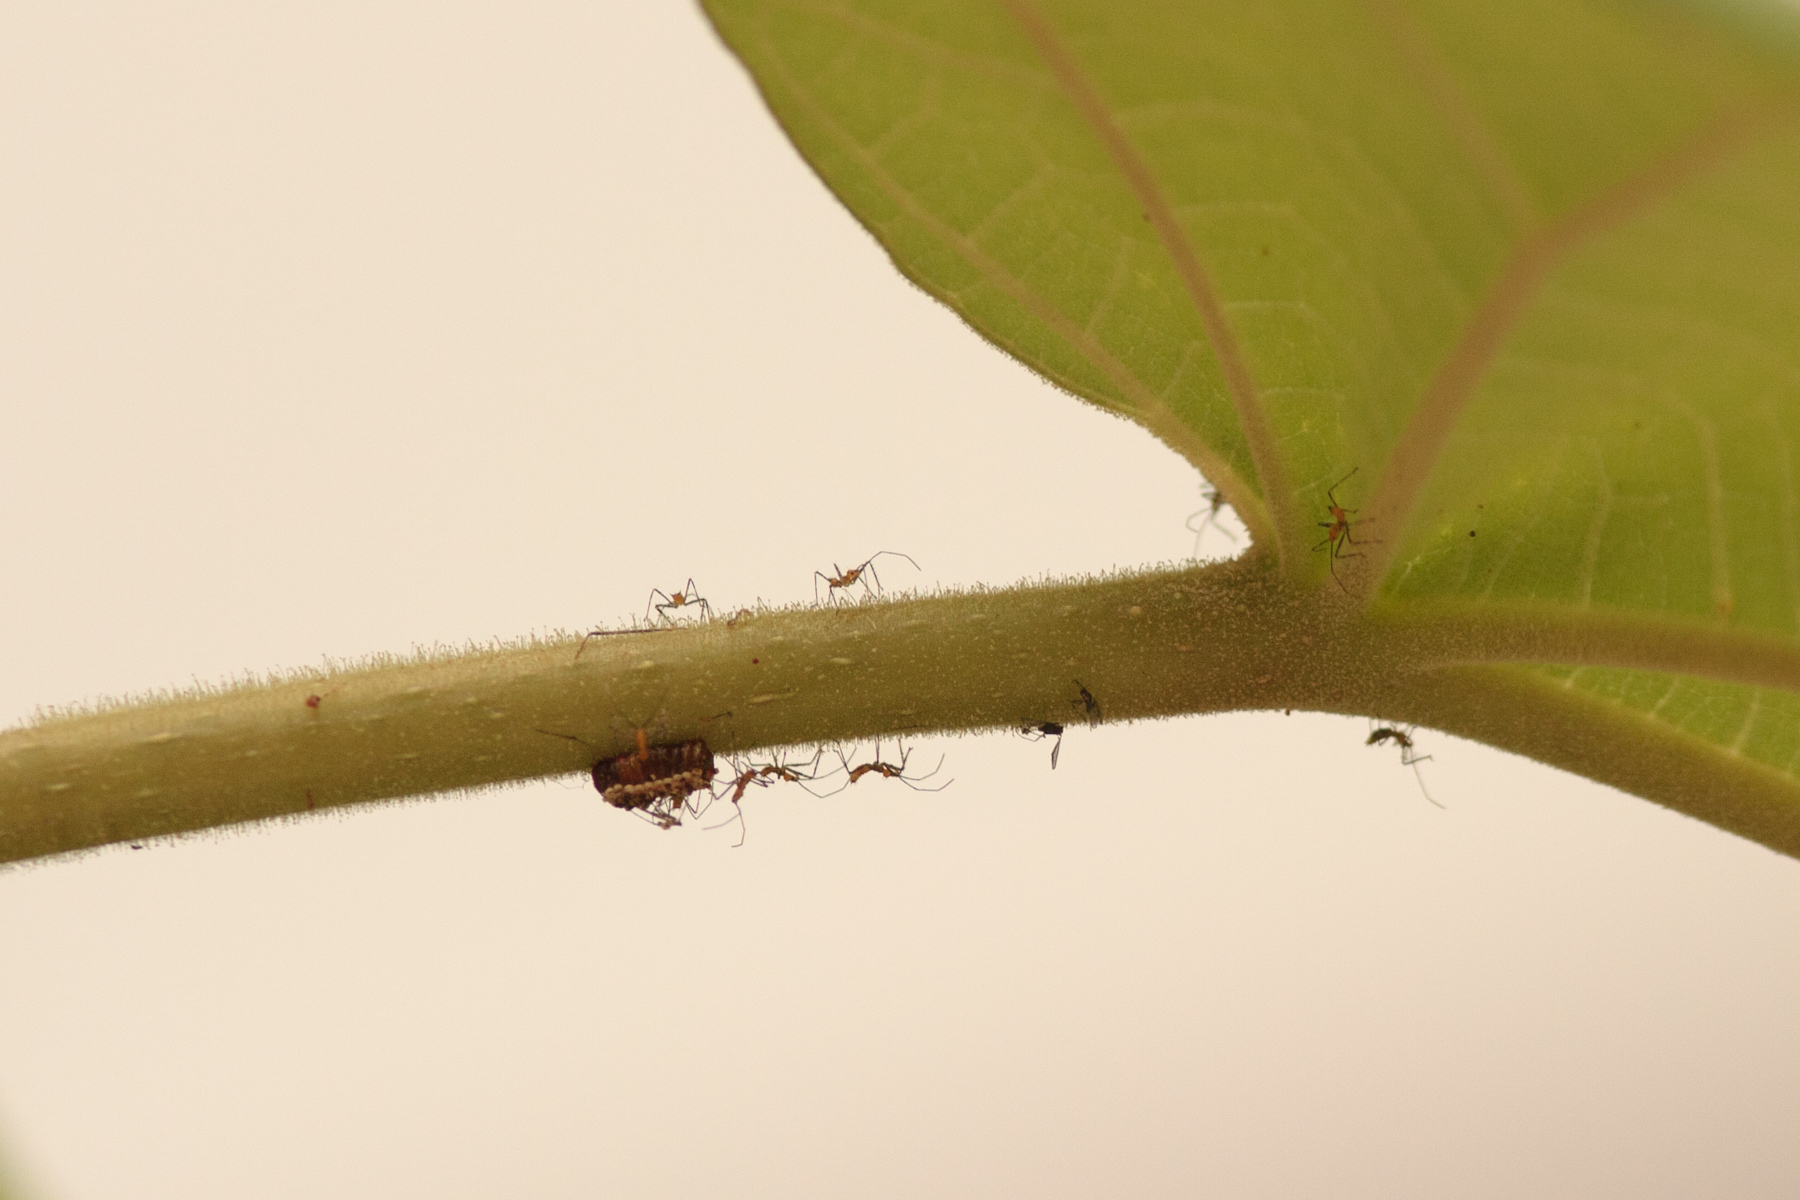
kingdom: Animalia
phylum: Arthropoda
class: Insecta
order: Hemiptera
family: Reduviidae
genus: Zelus
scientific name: Zelus longipes
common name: Milkweed assassin bug
